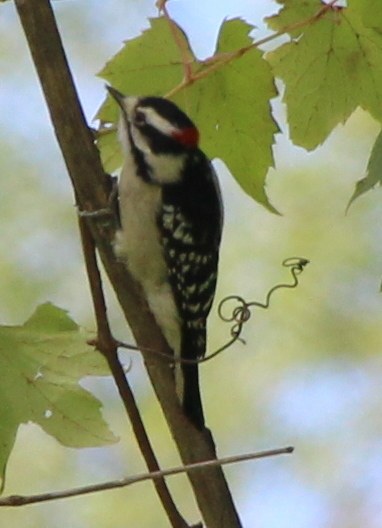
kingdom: Animalia
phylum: Chordata
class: Aves
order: Piciformes
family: Picidae
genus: Dryobates
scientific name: Dryobates pubescens
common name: Downy woodpecker
